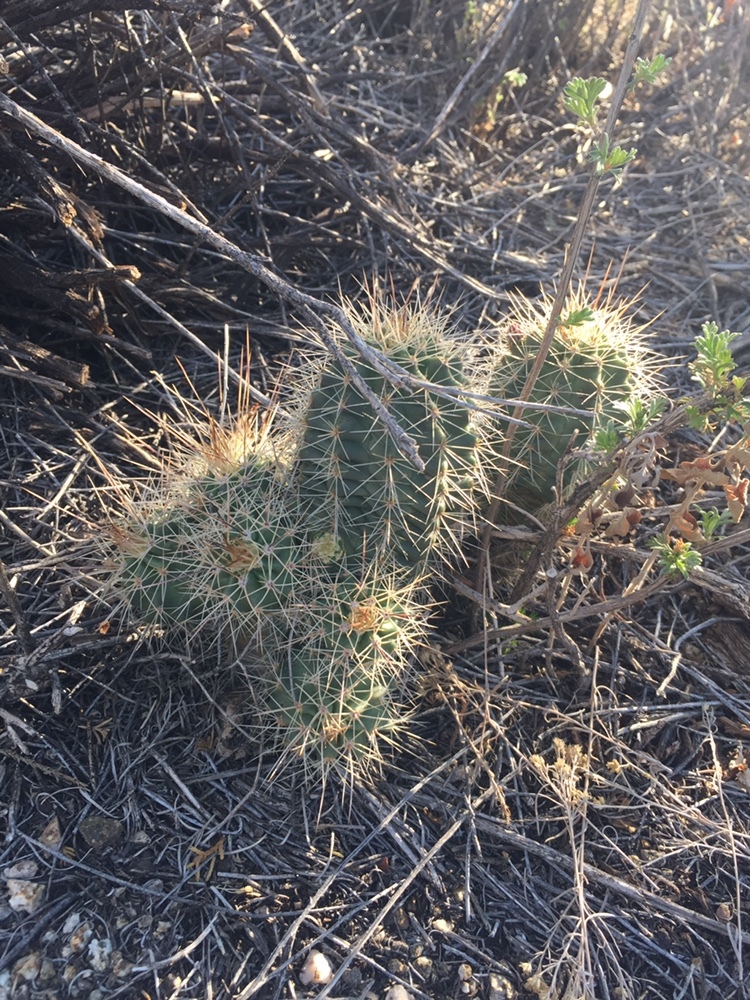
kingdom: Plantae
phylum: Tracheophyta
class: Magnoliopsida
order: Caryophyllales
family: Cactaceae
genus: Echinocereus
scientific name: Echinocereus coccineus
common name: Scarlet hedgehog cactus
